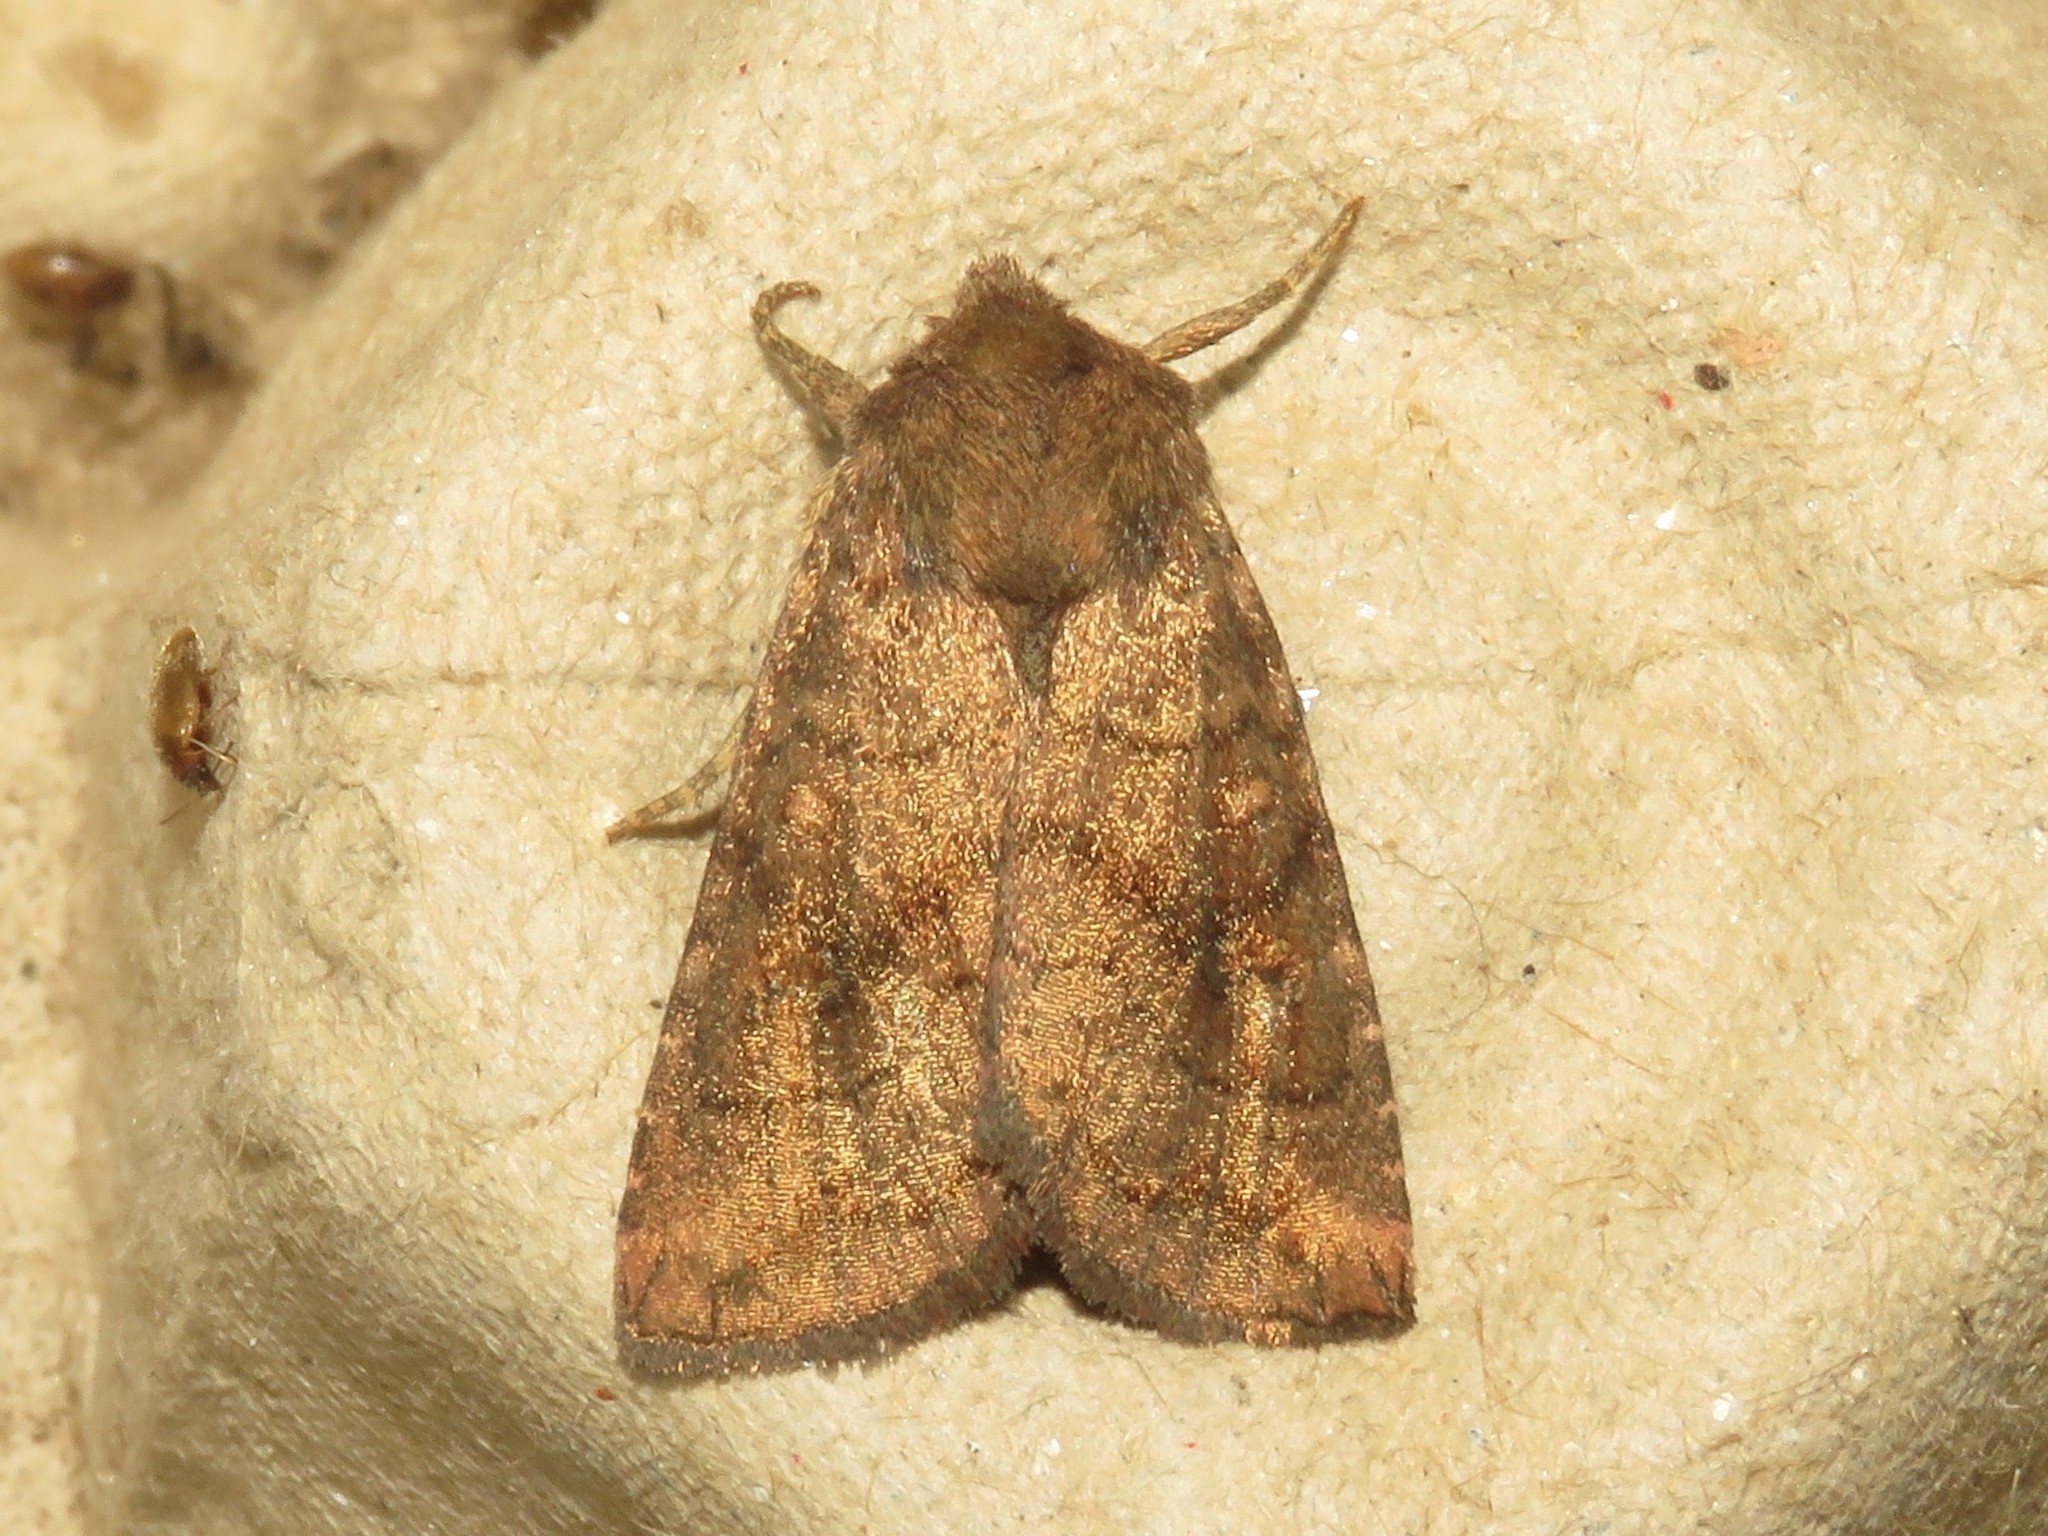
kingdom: Animalia
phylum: Arthropoda
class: Insecta
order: Lepidoptera
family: Noctuidae
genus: Tricholita
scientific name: Tricholita signata
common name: Signate quaker
